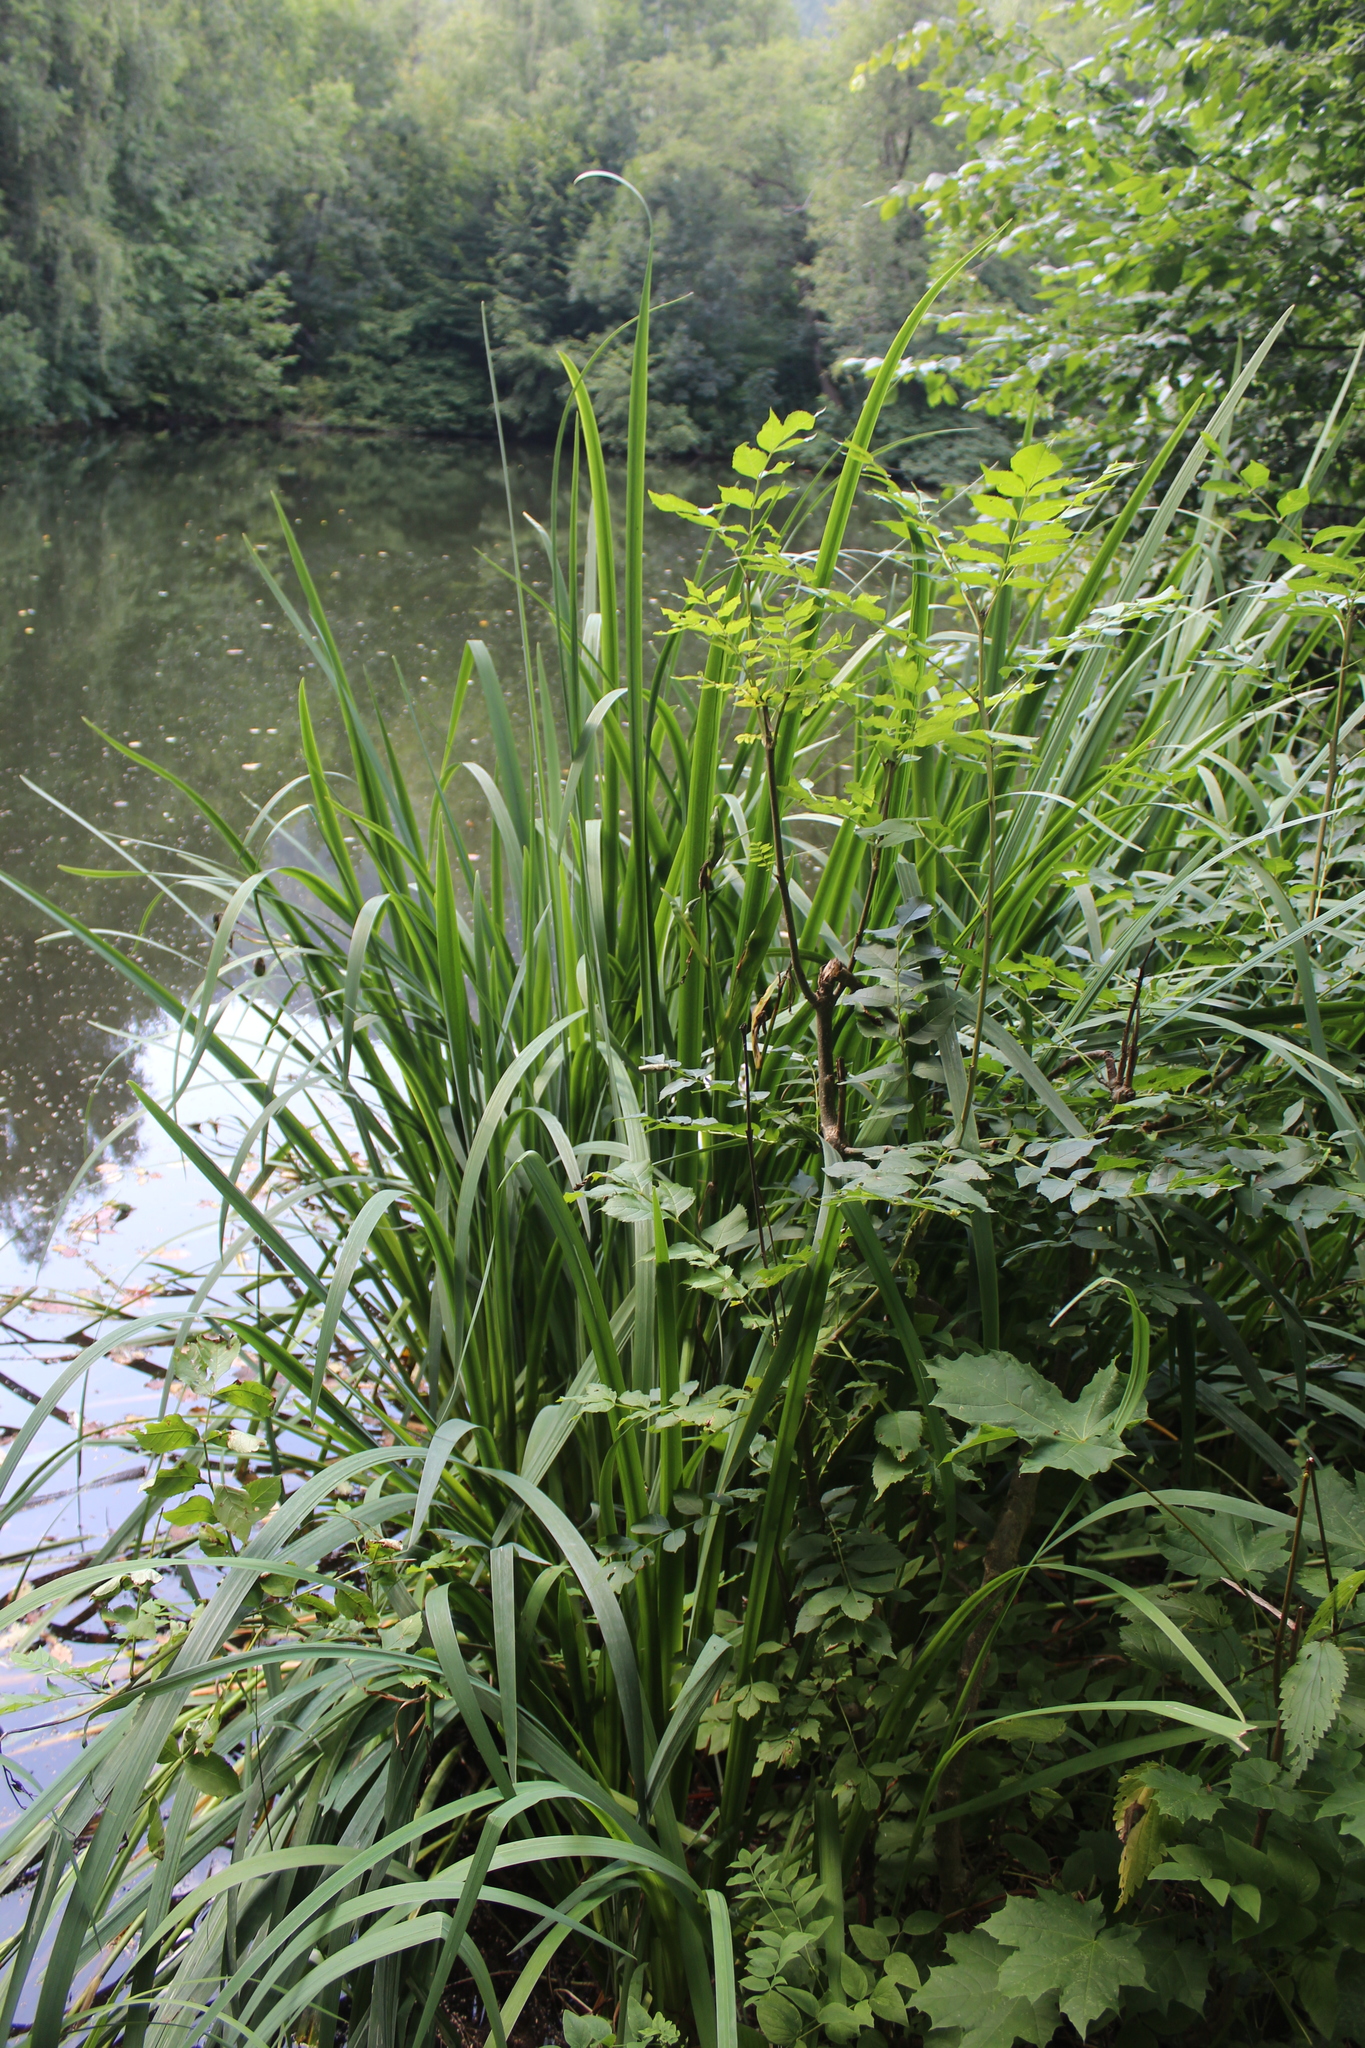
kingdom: Plantae
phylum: Tracheophyta
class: Liliopsida
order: Asparagales
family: Iridaceae
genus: Iris
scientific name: Iris pseudacorus
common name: Yellow flag
